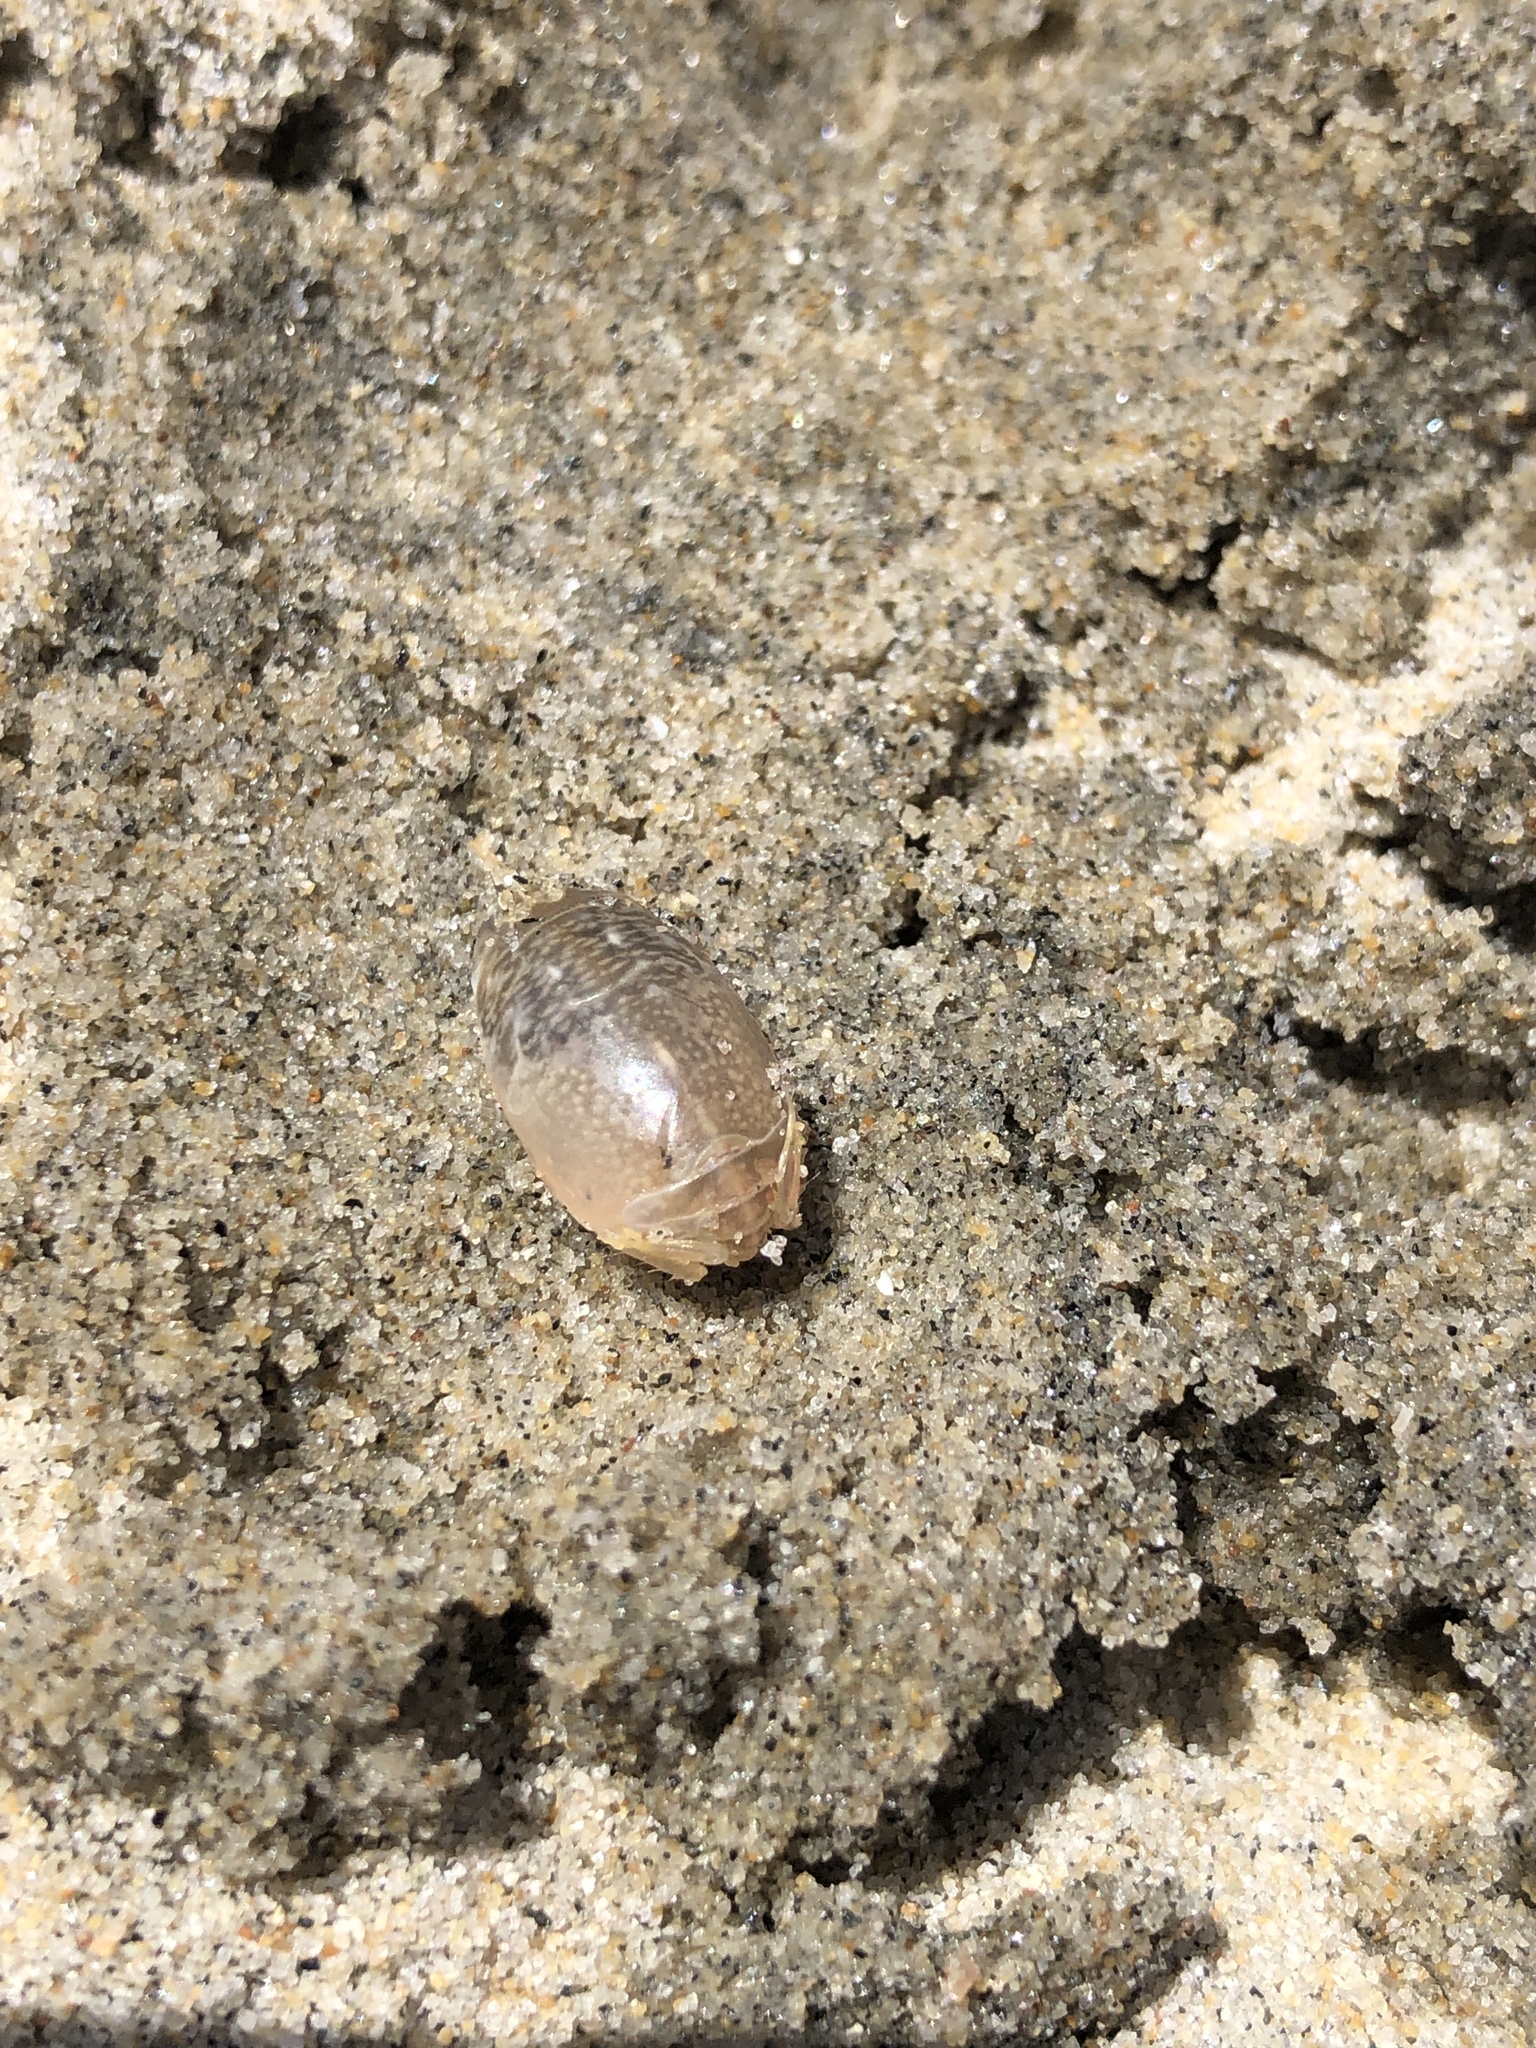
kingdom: Animalia
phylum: Arthropoda
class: Malacostraca
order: Decapoda
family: Hippidae
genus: Emerita
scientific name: Emerita analoga
